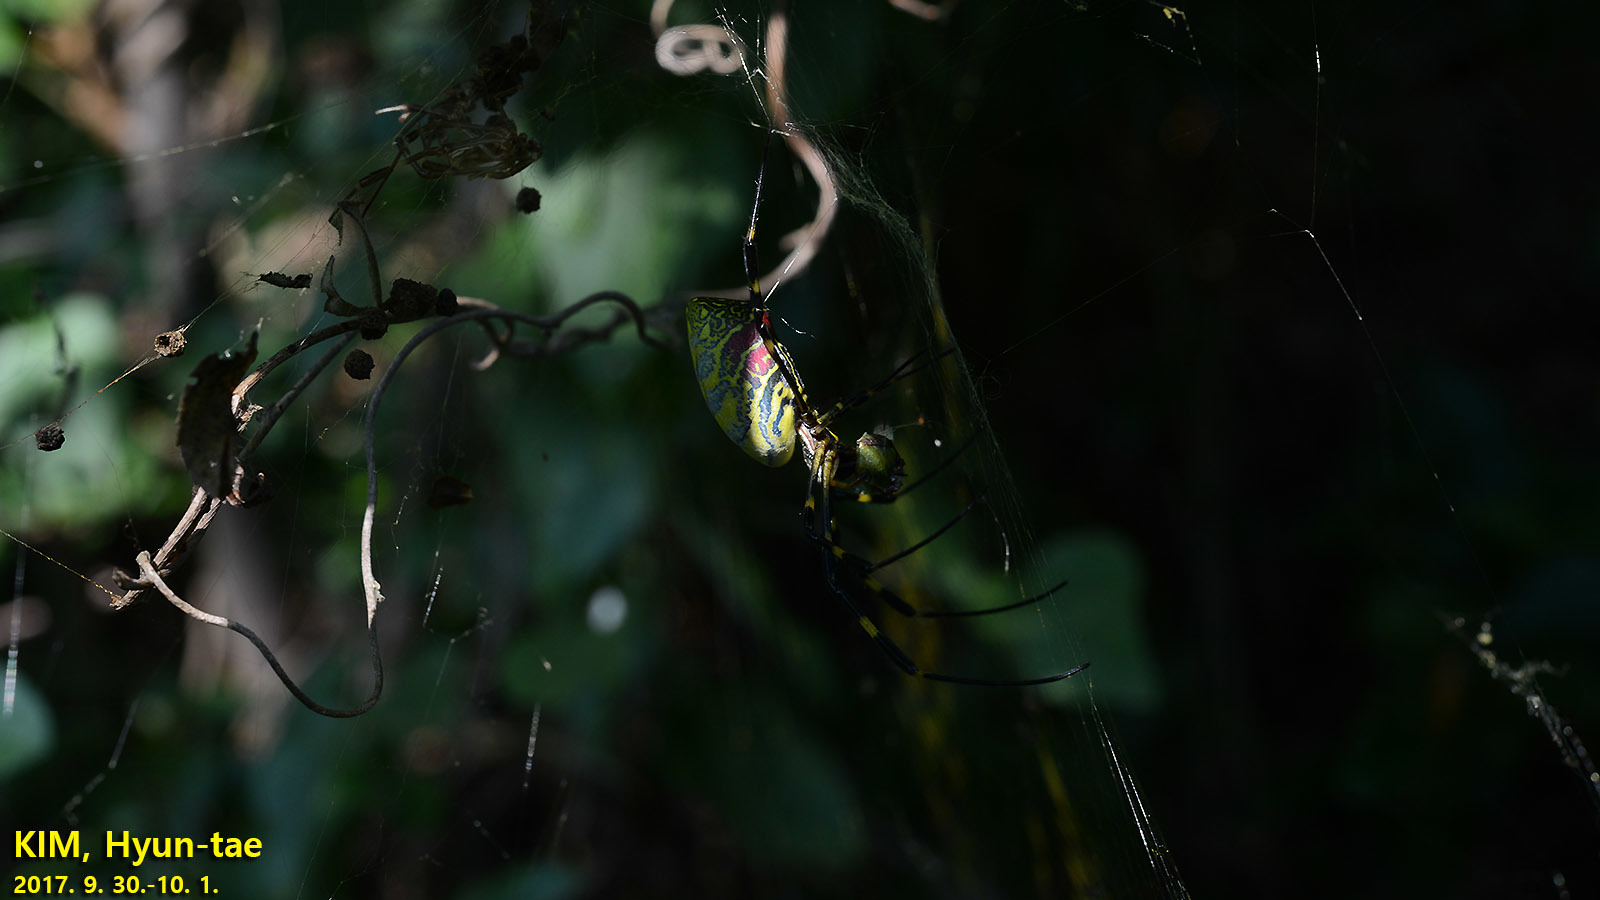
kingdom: Animalia
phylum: Arthropoda
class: Arachnida
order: Araneae
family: Araneidae
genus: Trichonephila
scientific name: Trichonephila clavata
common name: Jorō spider
